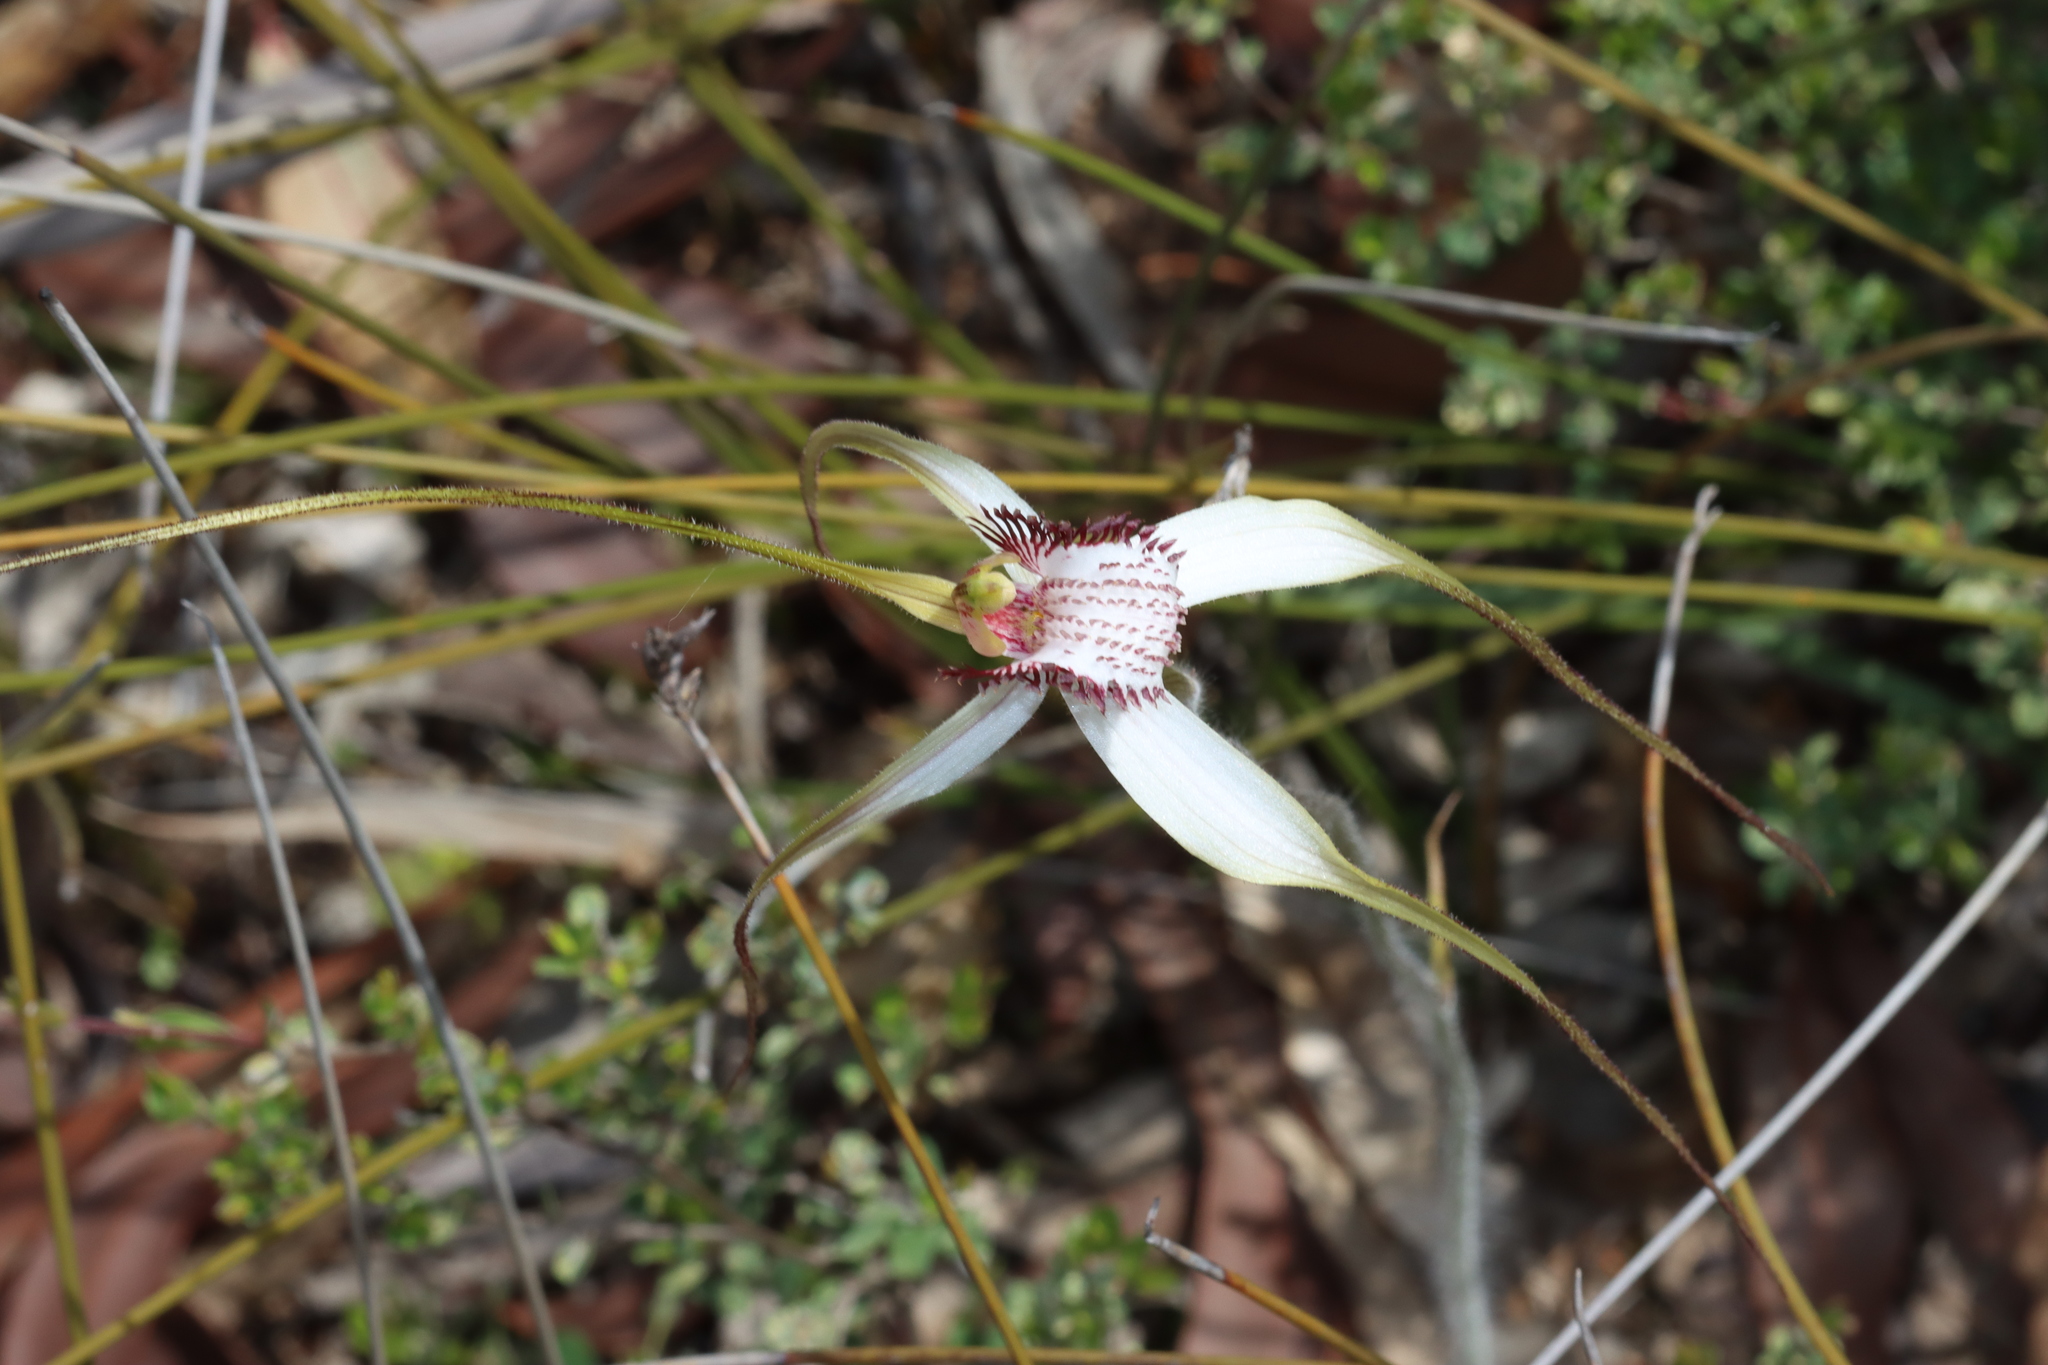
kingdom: Plantae
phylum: Tracheophyta
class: Liliopsida
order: Asparagales
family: Orchidaceae
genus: Caladenia
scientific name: Caladenia longicauda
